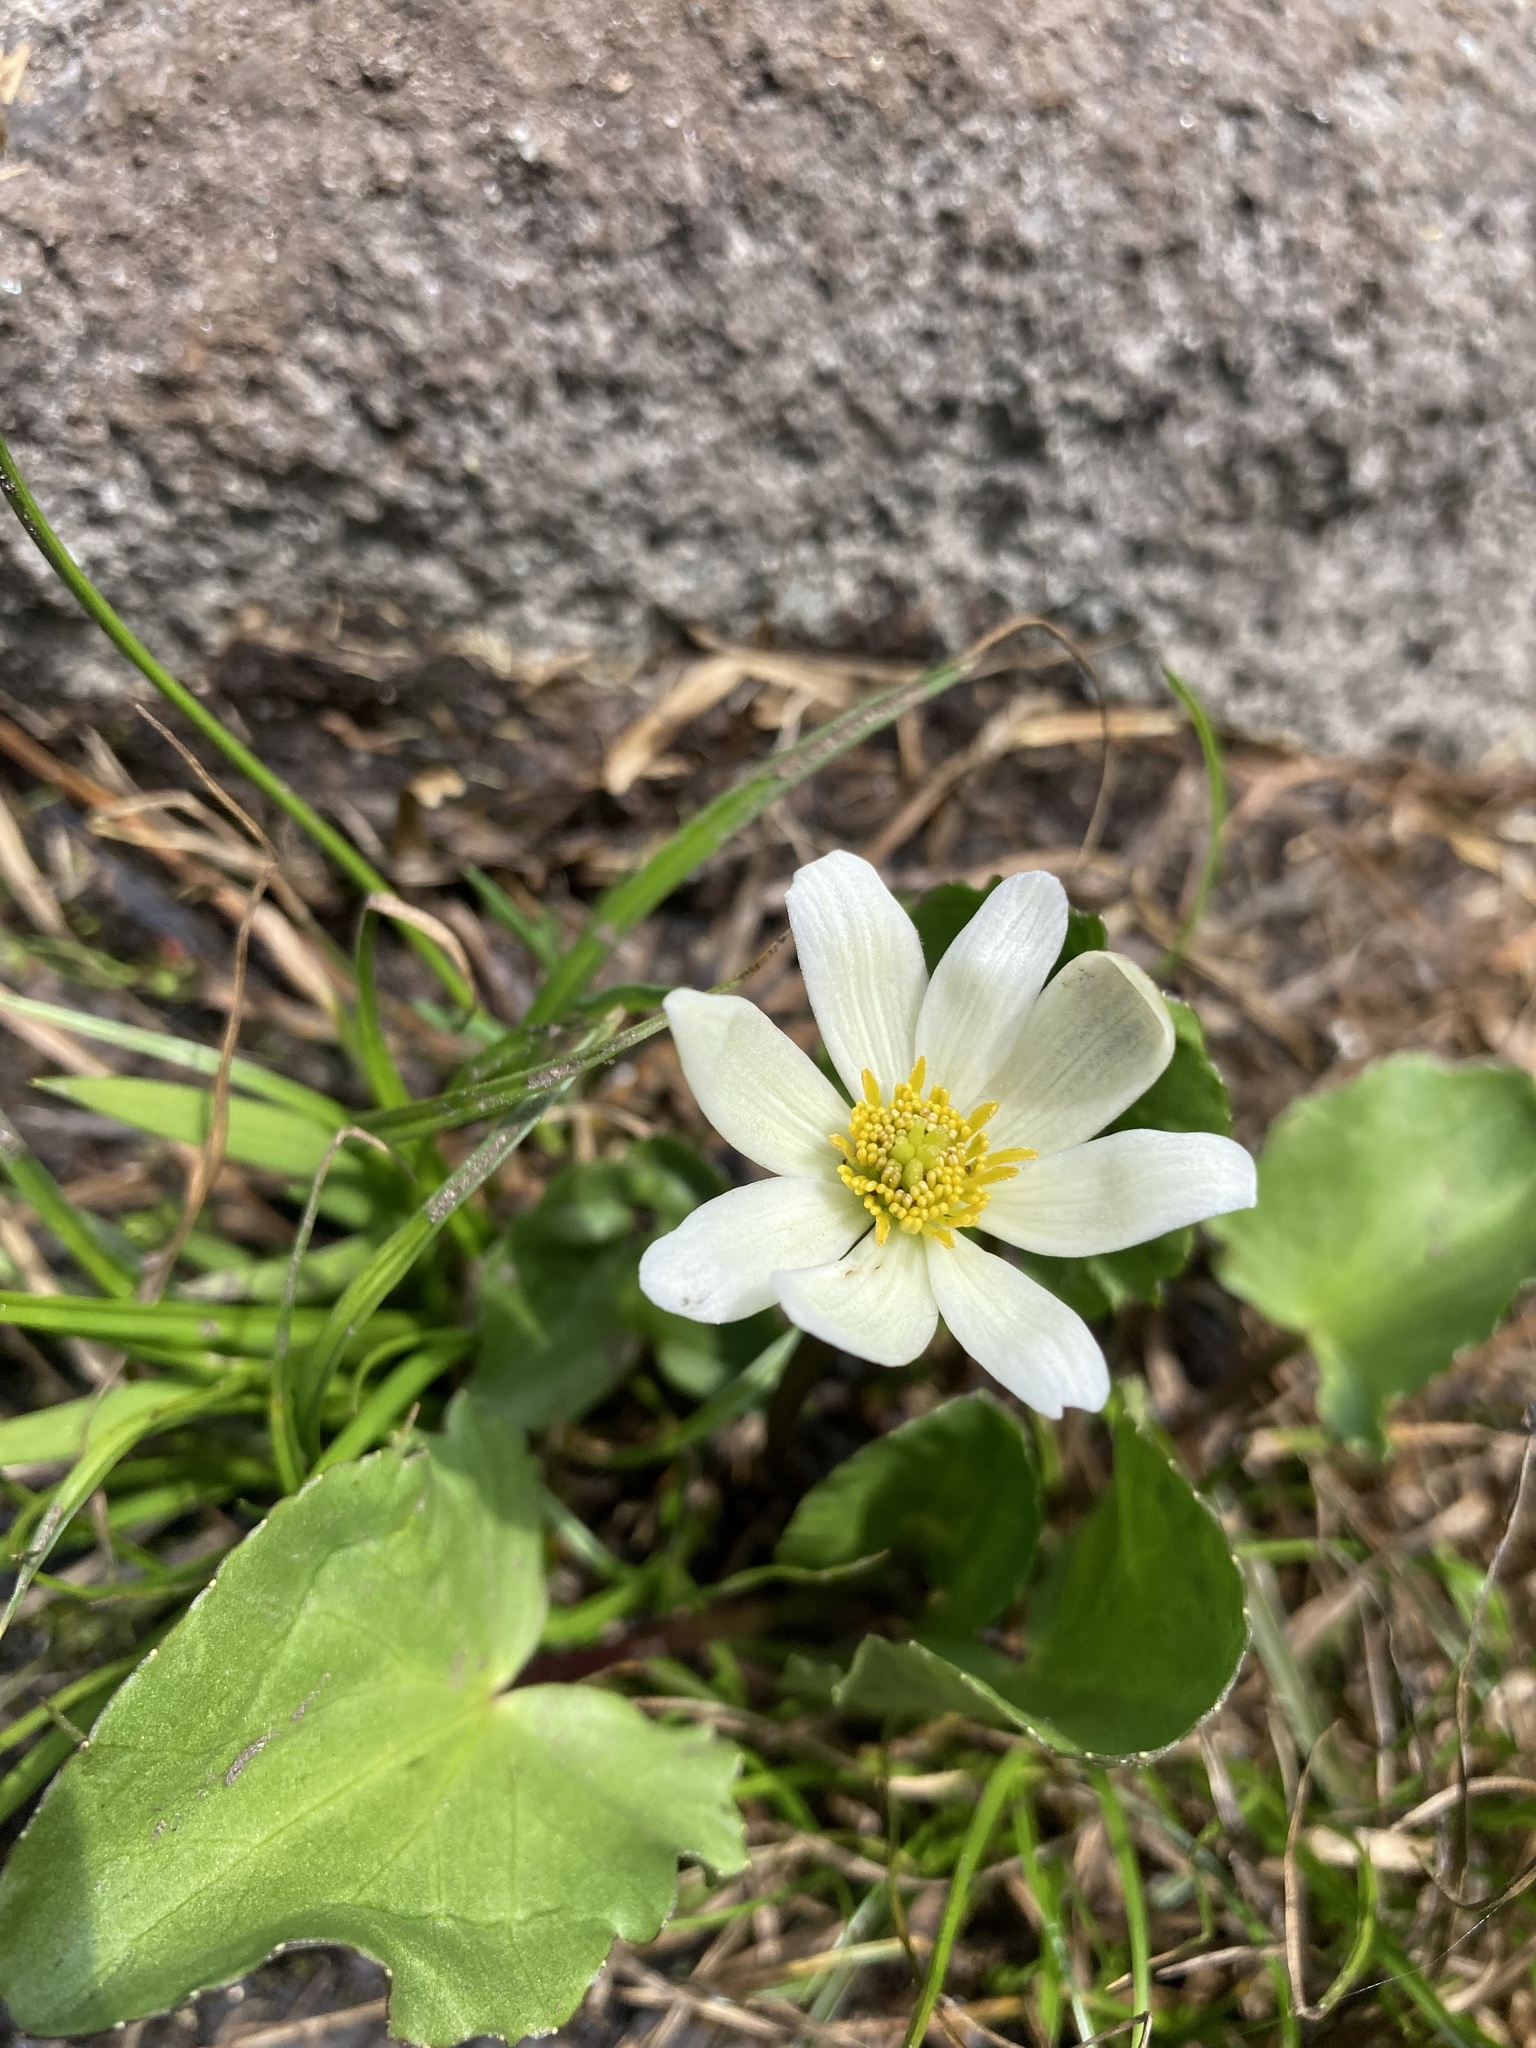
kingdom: Plantae
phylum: Tracheophyta
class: Magnoliopsida
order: Ranunculales
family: Ranunculaceae
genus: Caltha
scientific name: Caltha leptosepala
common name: Elkslip
